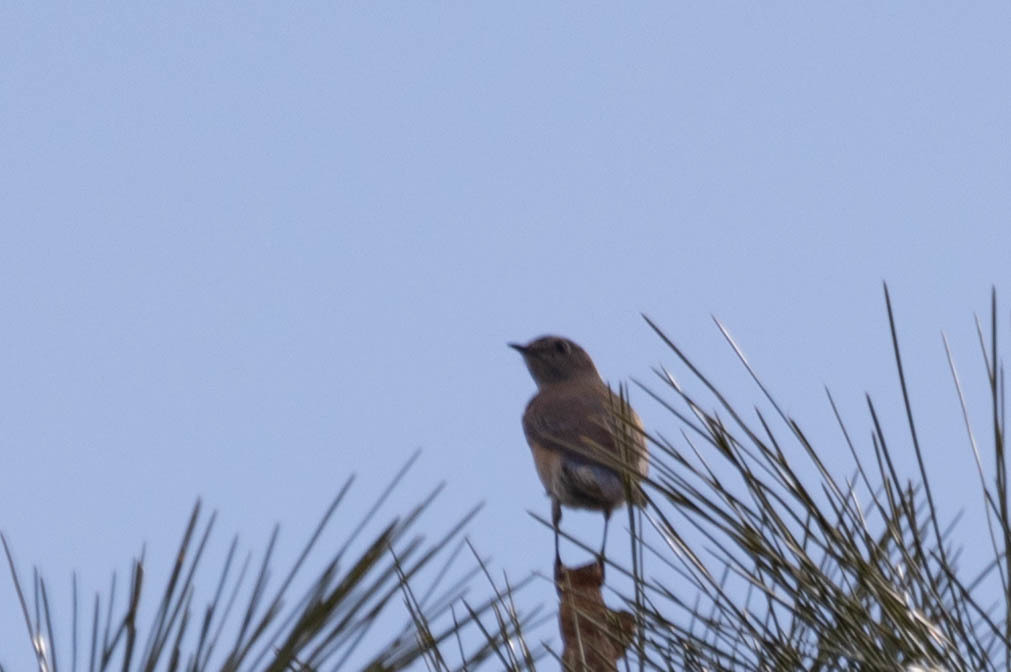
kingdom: Animalia
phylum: Chordata
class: Aves
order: Passeriformes
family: Turdidae
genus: Sialia
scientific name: Sialia mexicana
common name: Western bluebird
